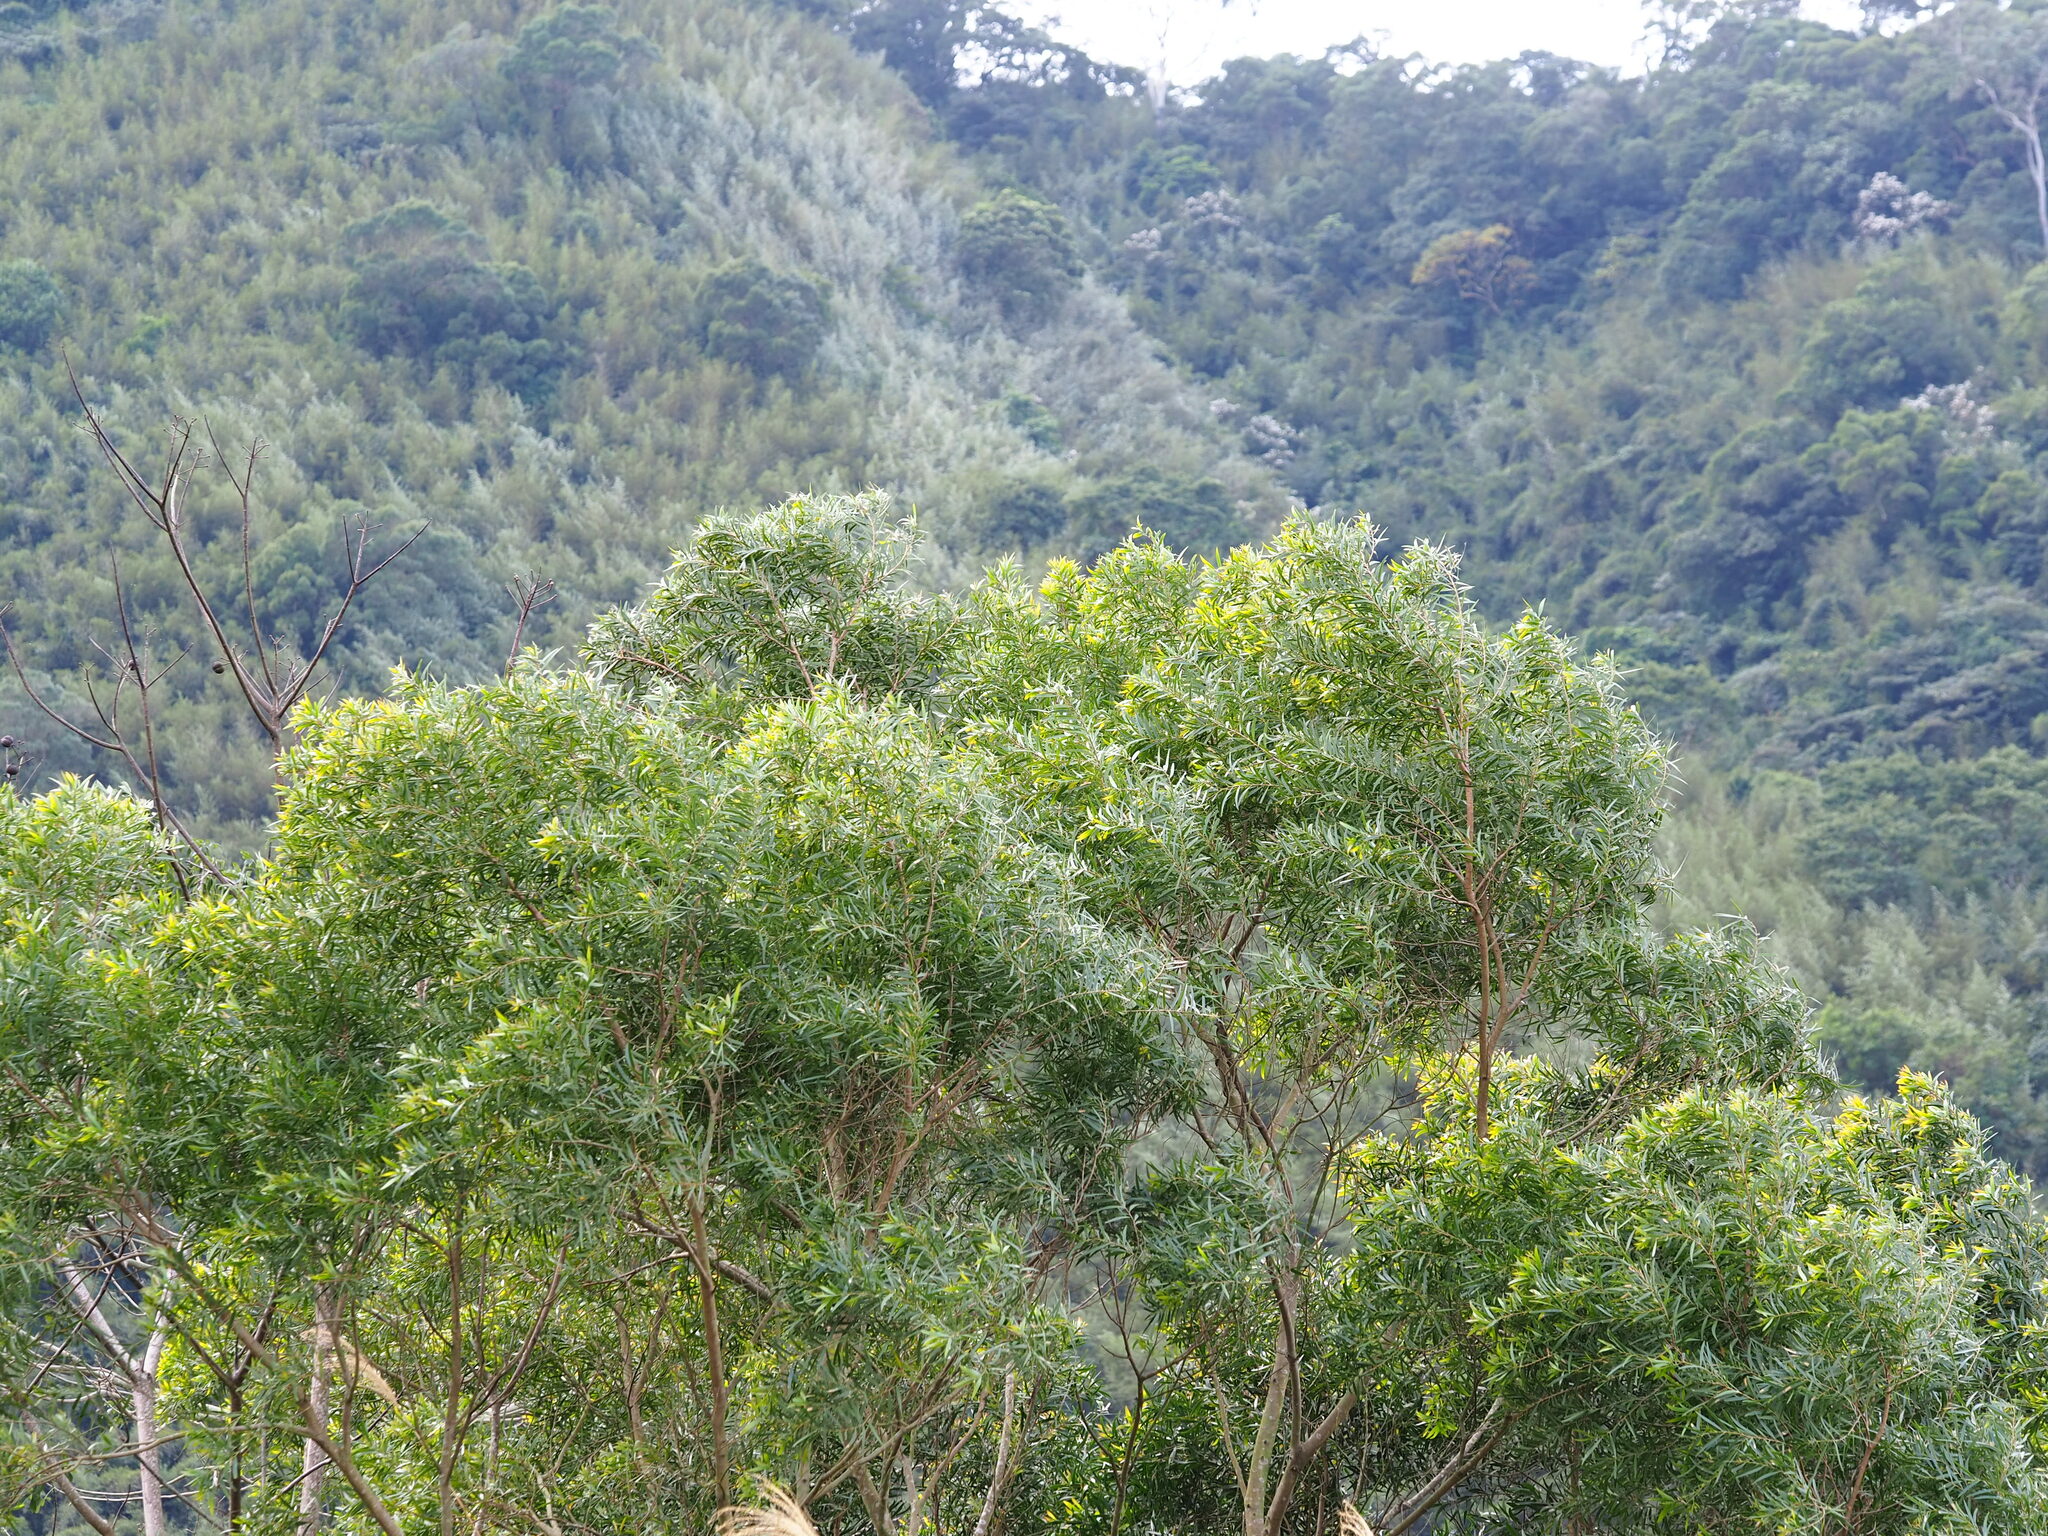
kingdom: Plantae
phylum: Tracheophyta
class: Magnoliopsida
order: Fabales
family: Fabaceae
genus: Acacia
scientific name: Acacia confusa
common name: Formosan koa
